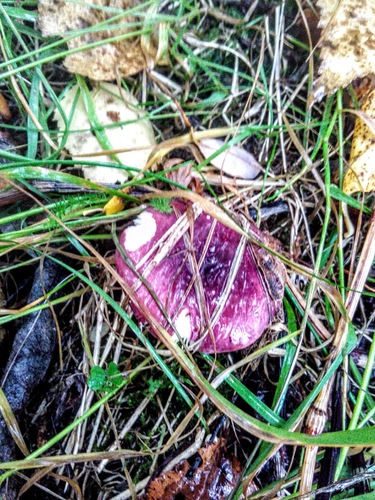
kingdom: Fungi
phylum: Basidiomycota
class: Agaricomycetes
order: Russulales
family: Russulaceae
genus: Russula
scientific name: Russula sanguinea
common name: Bloody brittlegill
